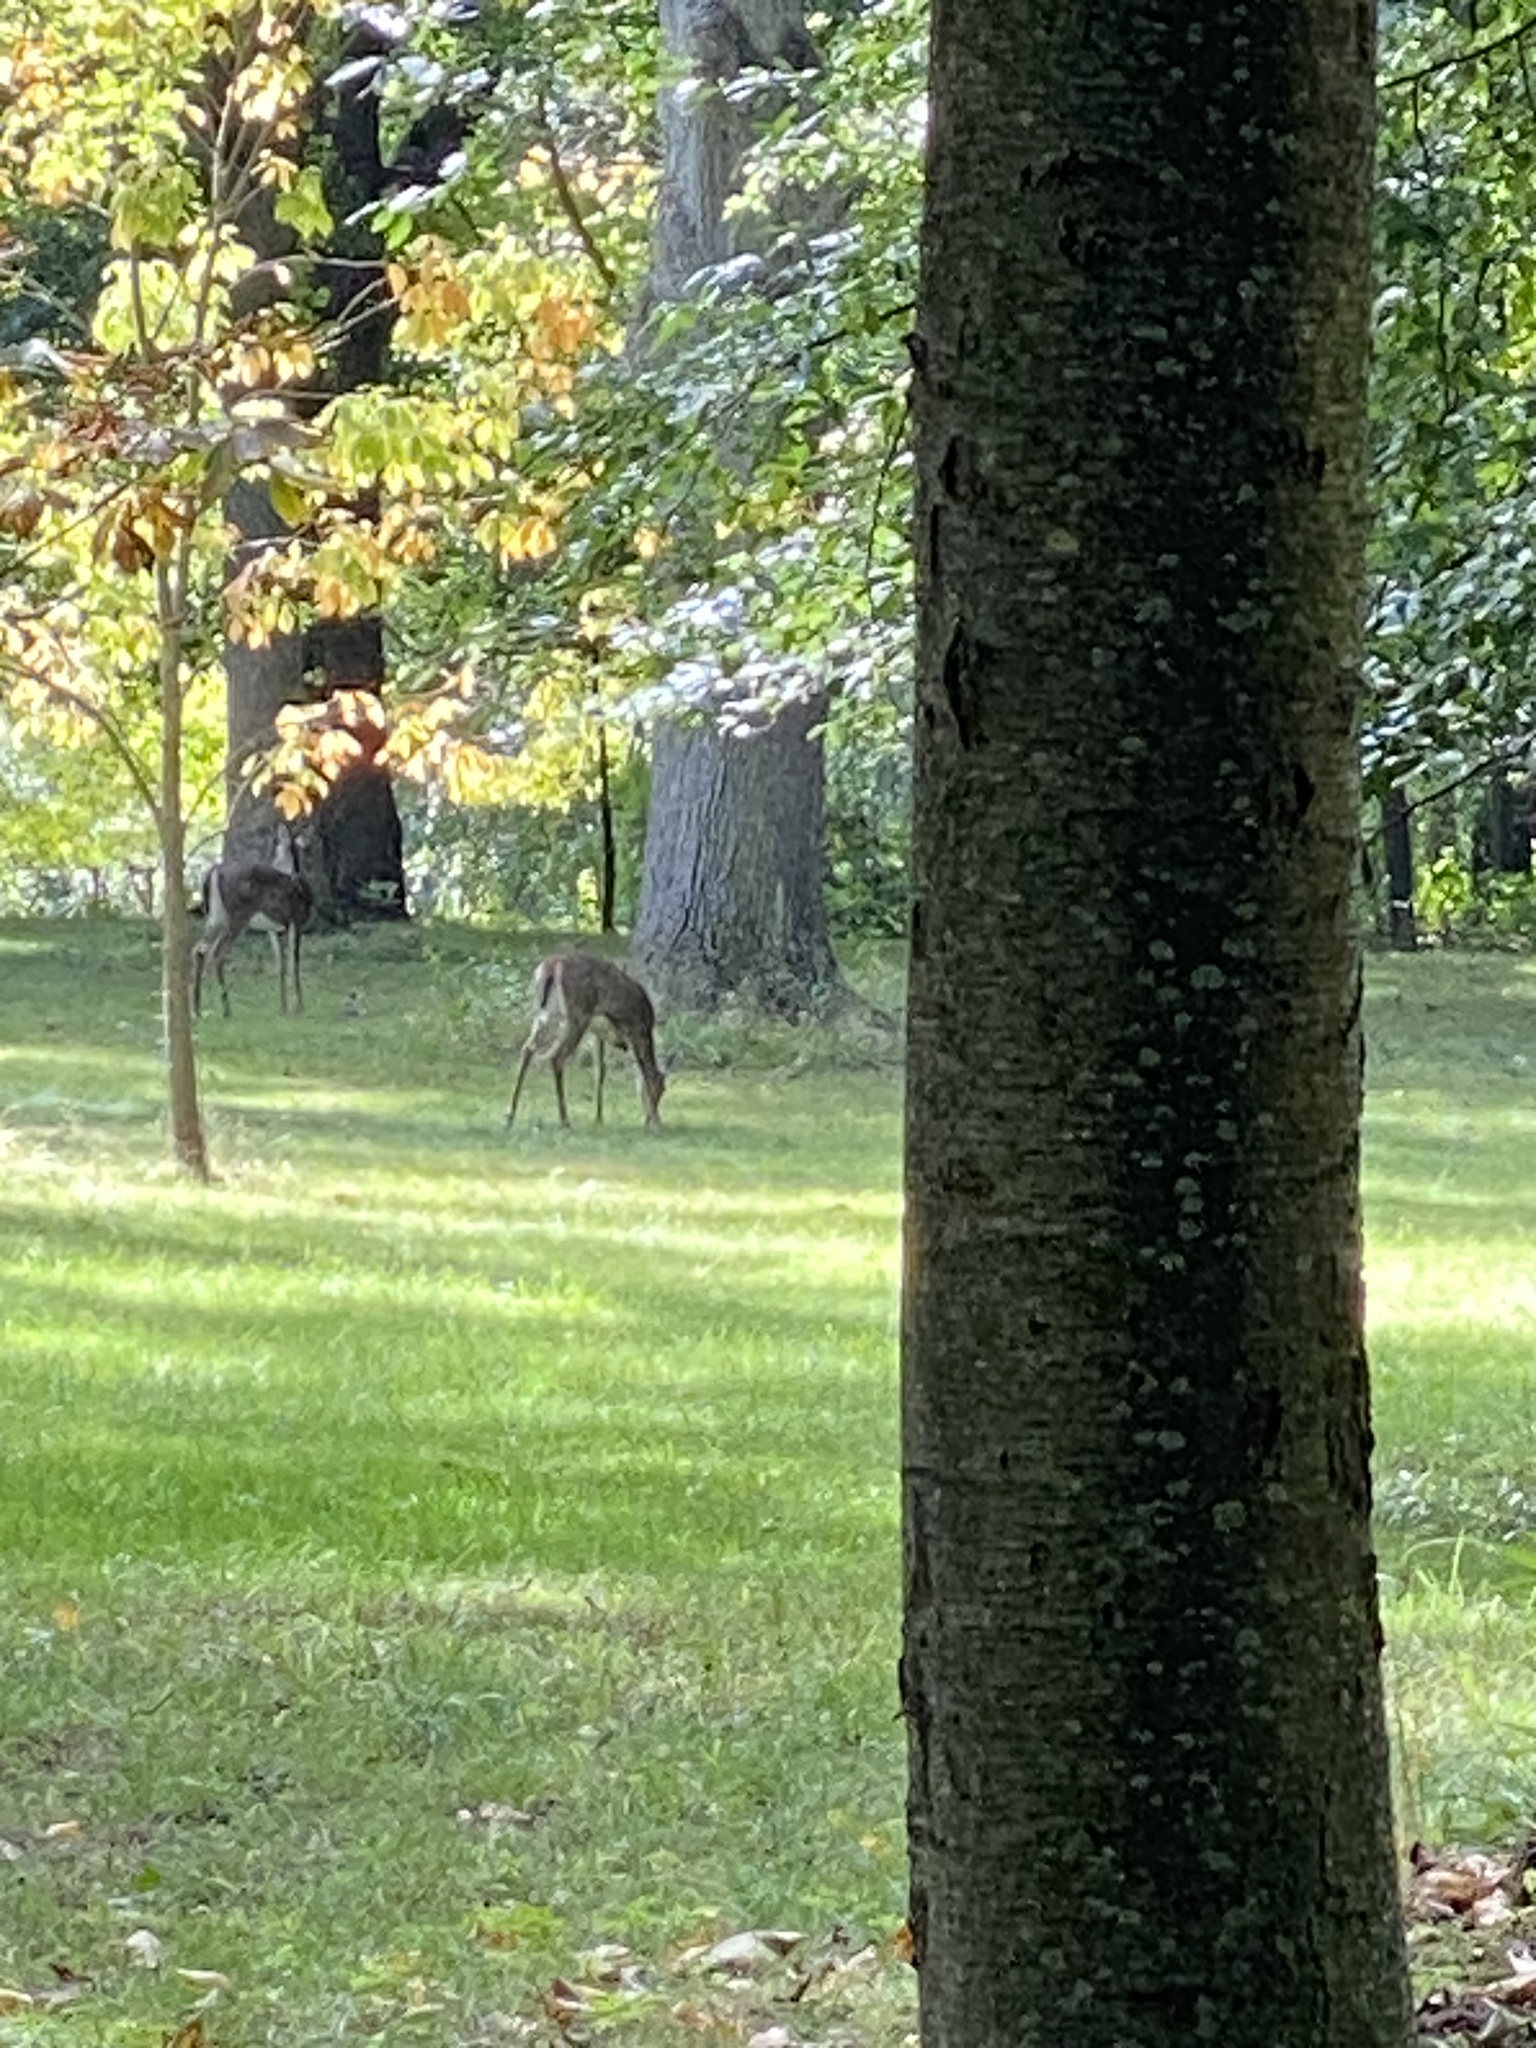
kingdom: Animalia
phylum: Chordata
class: Mammalia
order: Artiodactyla
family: Cervidae
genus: Odocoileus
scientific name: Odocoileus virginianus
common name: White-tailed deer
